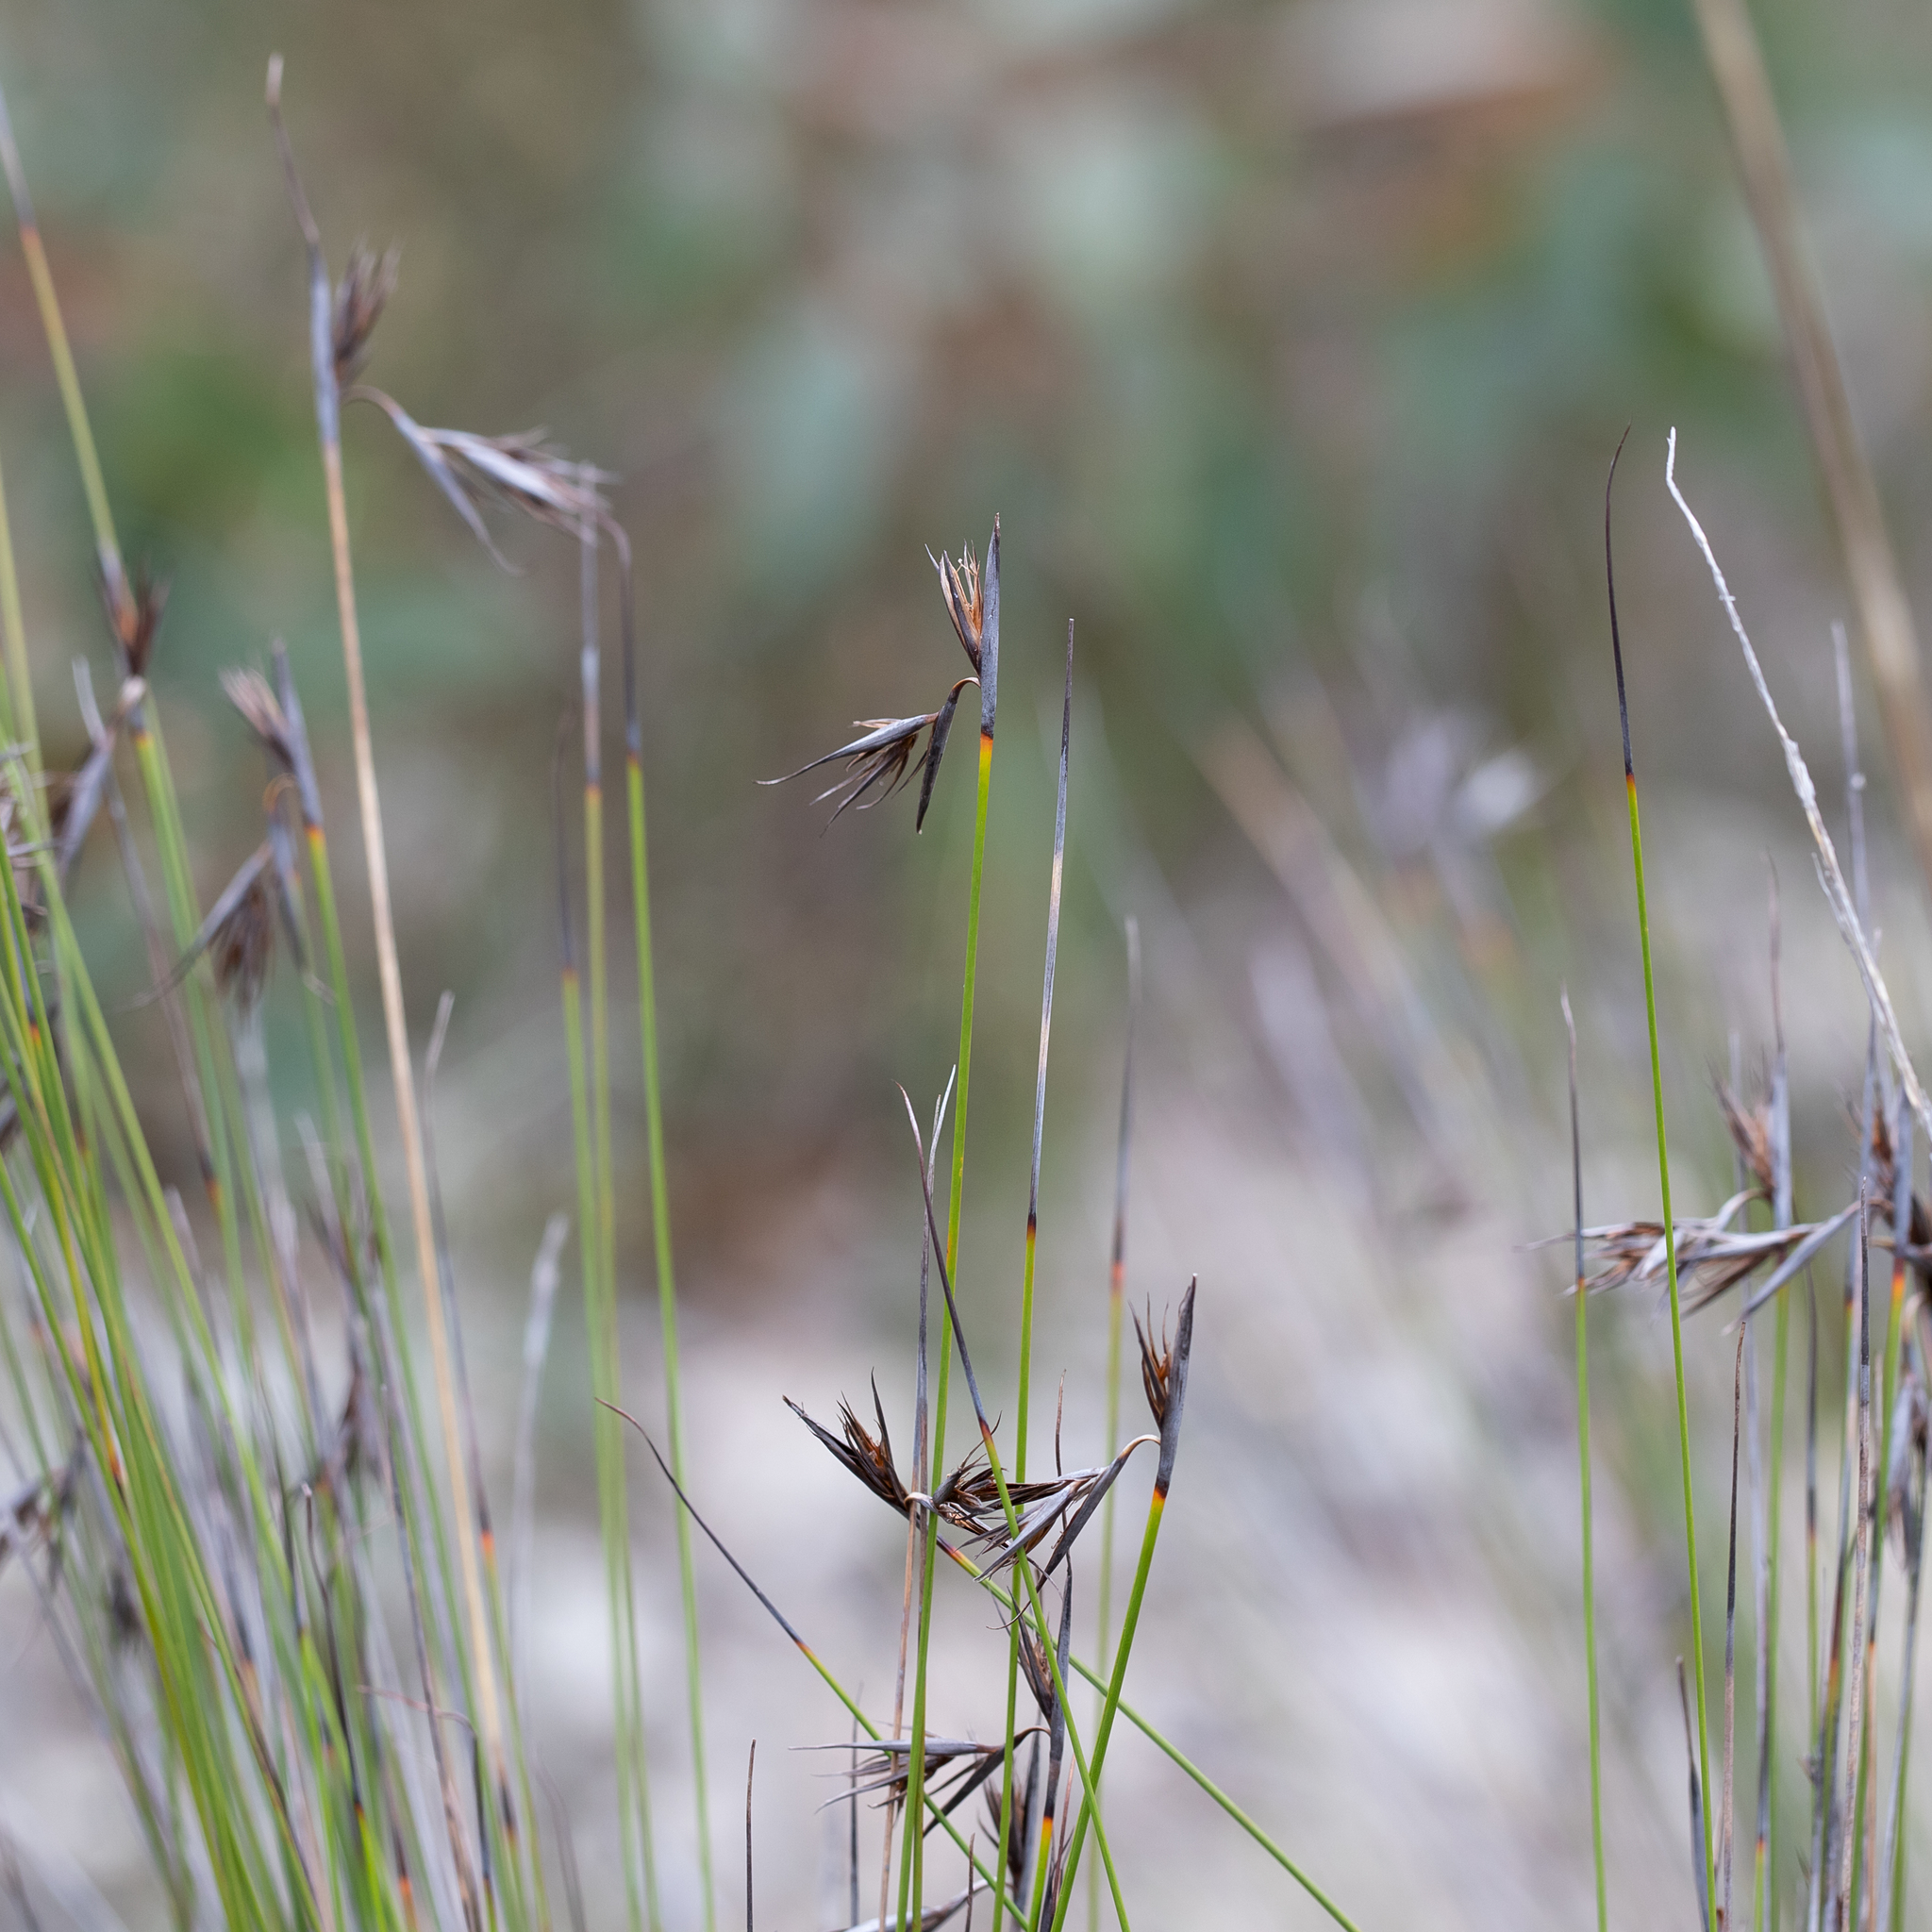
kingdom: Plantae
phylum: Tracheophyta
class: Liliopsida
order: Poales
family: Cyperaceae
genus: Lepidosperma
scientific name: Lepidosperma carphoides
